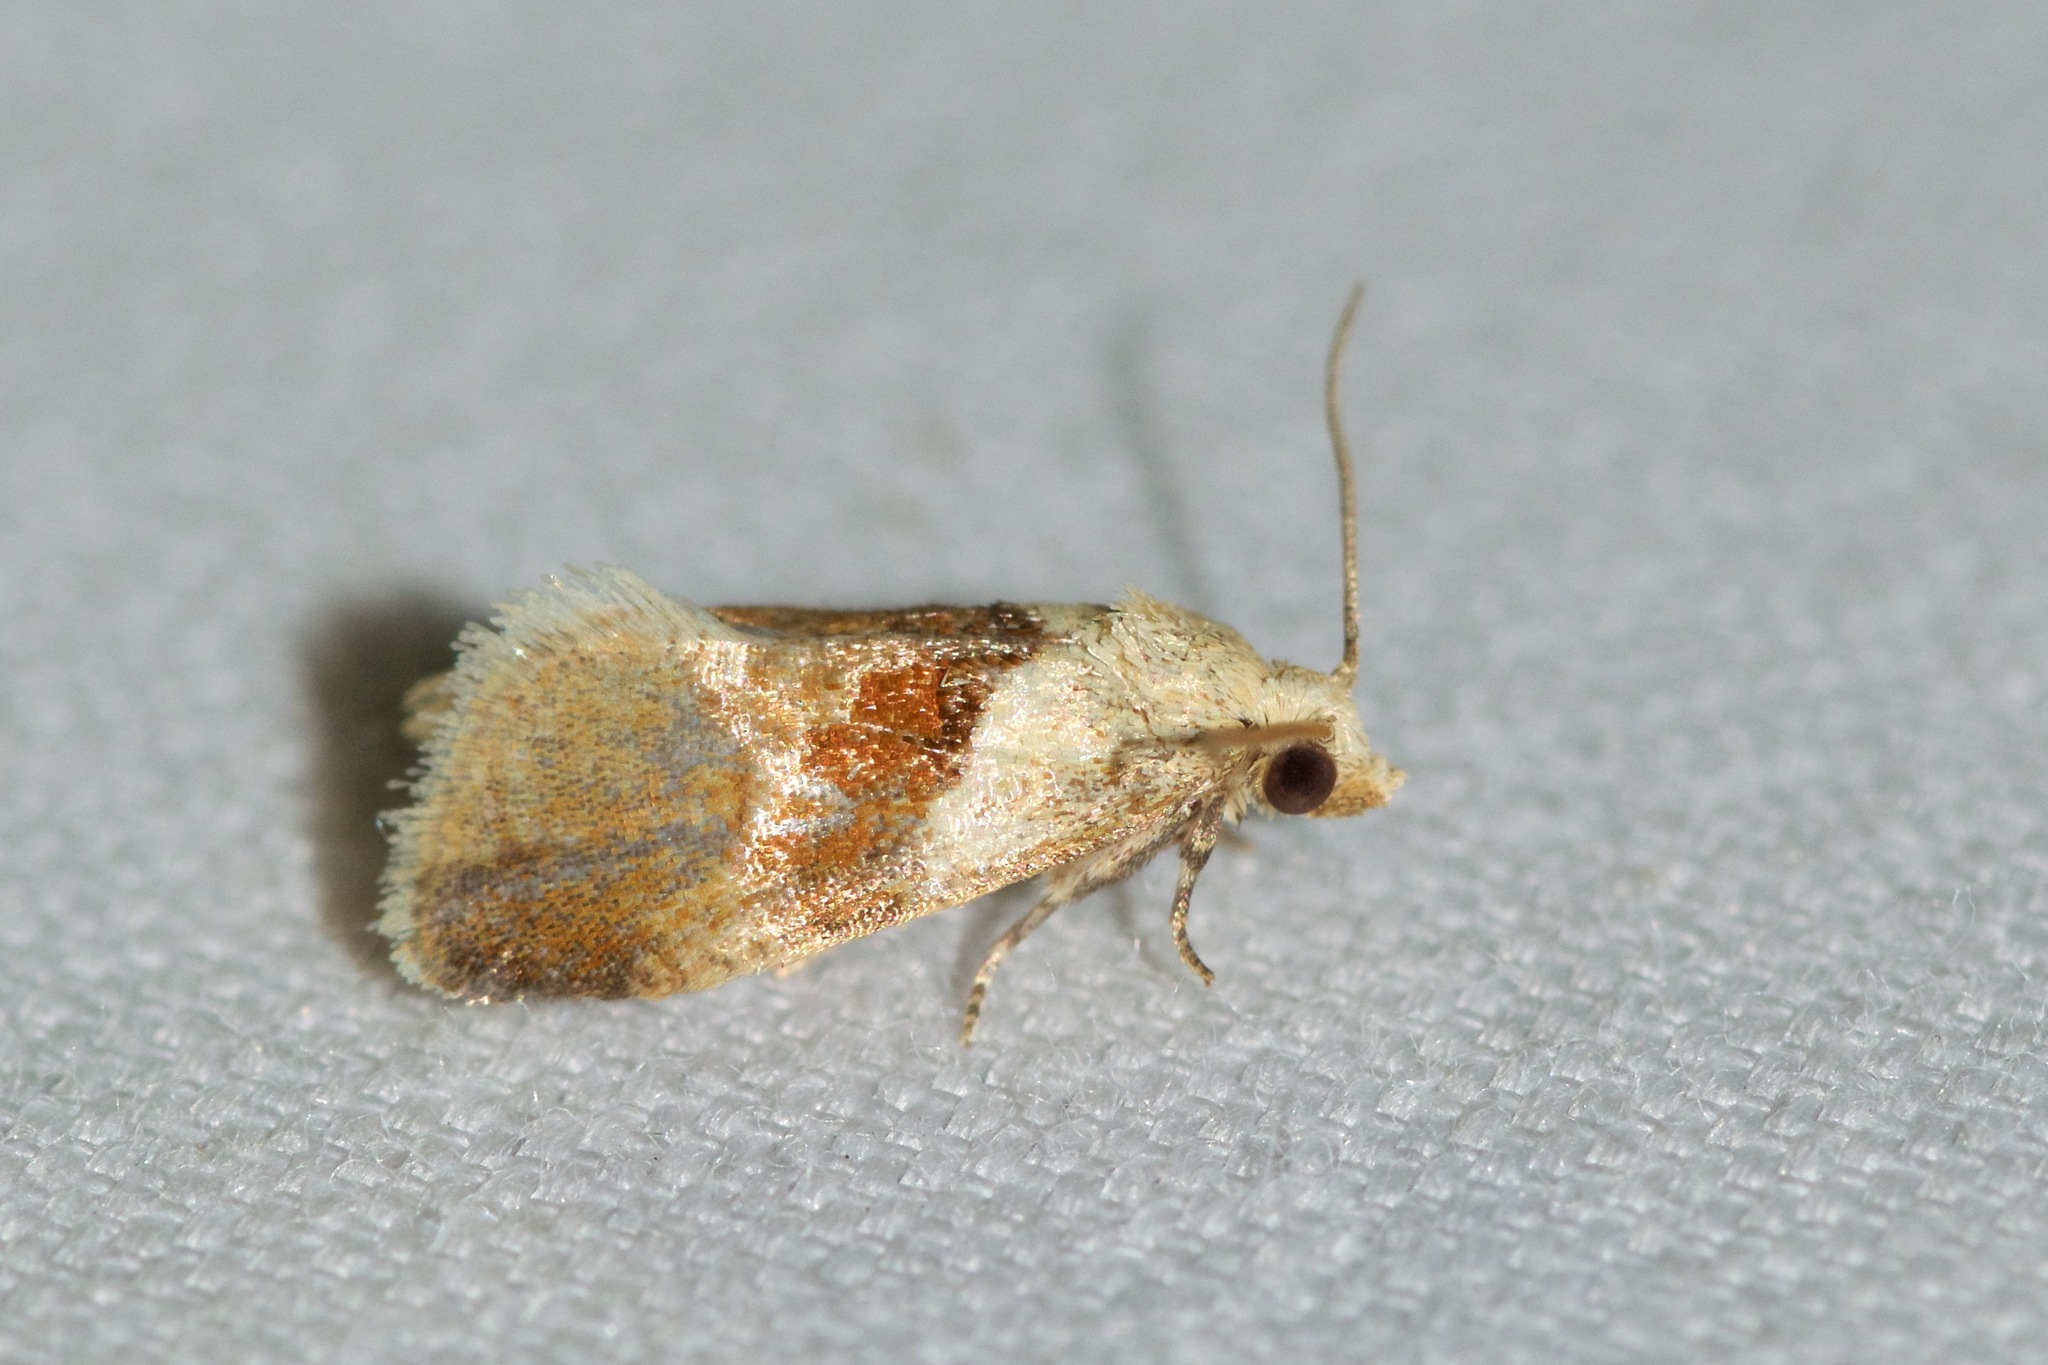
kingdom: Animalia
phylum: Arthropoda
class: Insecta
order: Lepidoptera
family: Tortricidae
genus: Phalonidia
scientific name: Phalonidia lepidana
